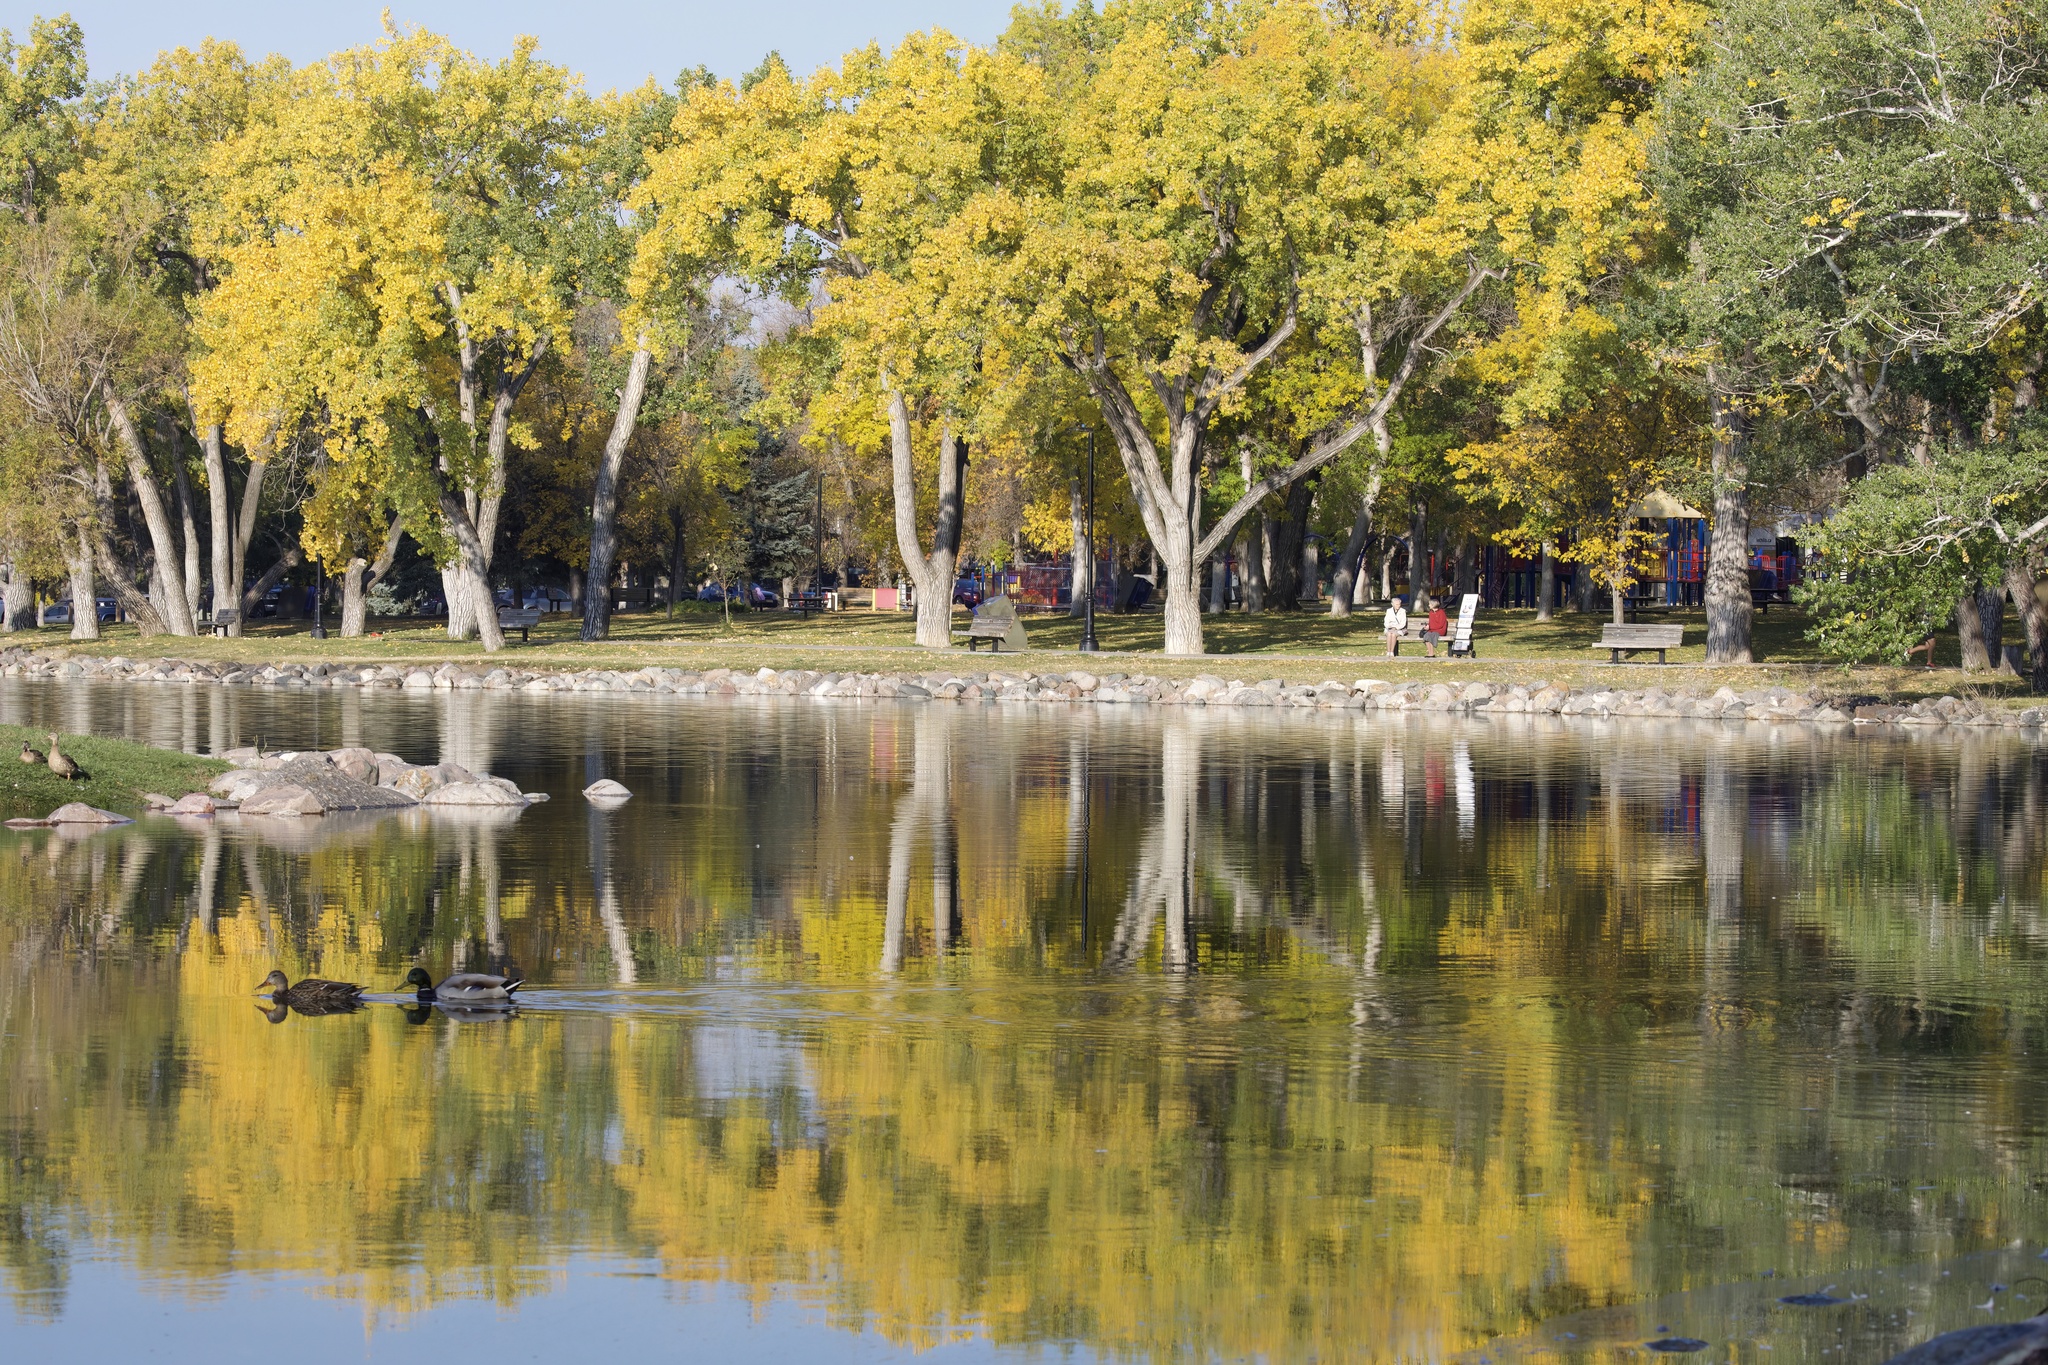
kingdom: Animalia
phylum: Chordata
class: Aves
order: Anseriformes
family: Anatidae
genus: Anas
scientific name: Anas platyrhynchos
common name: Mallard
